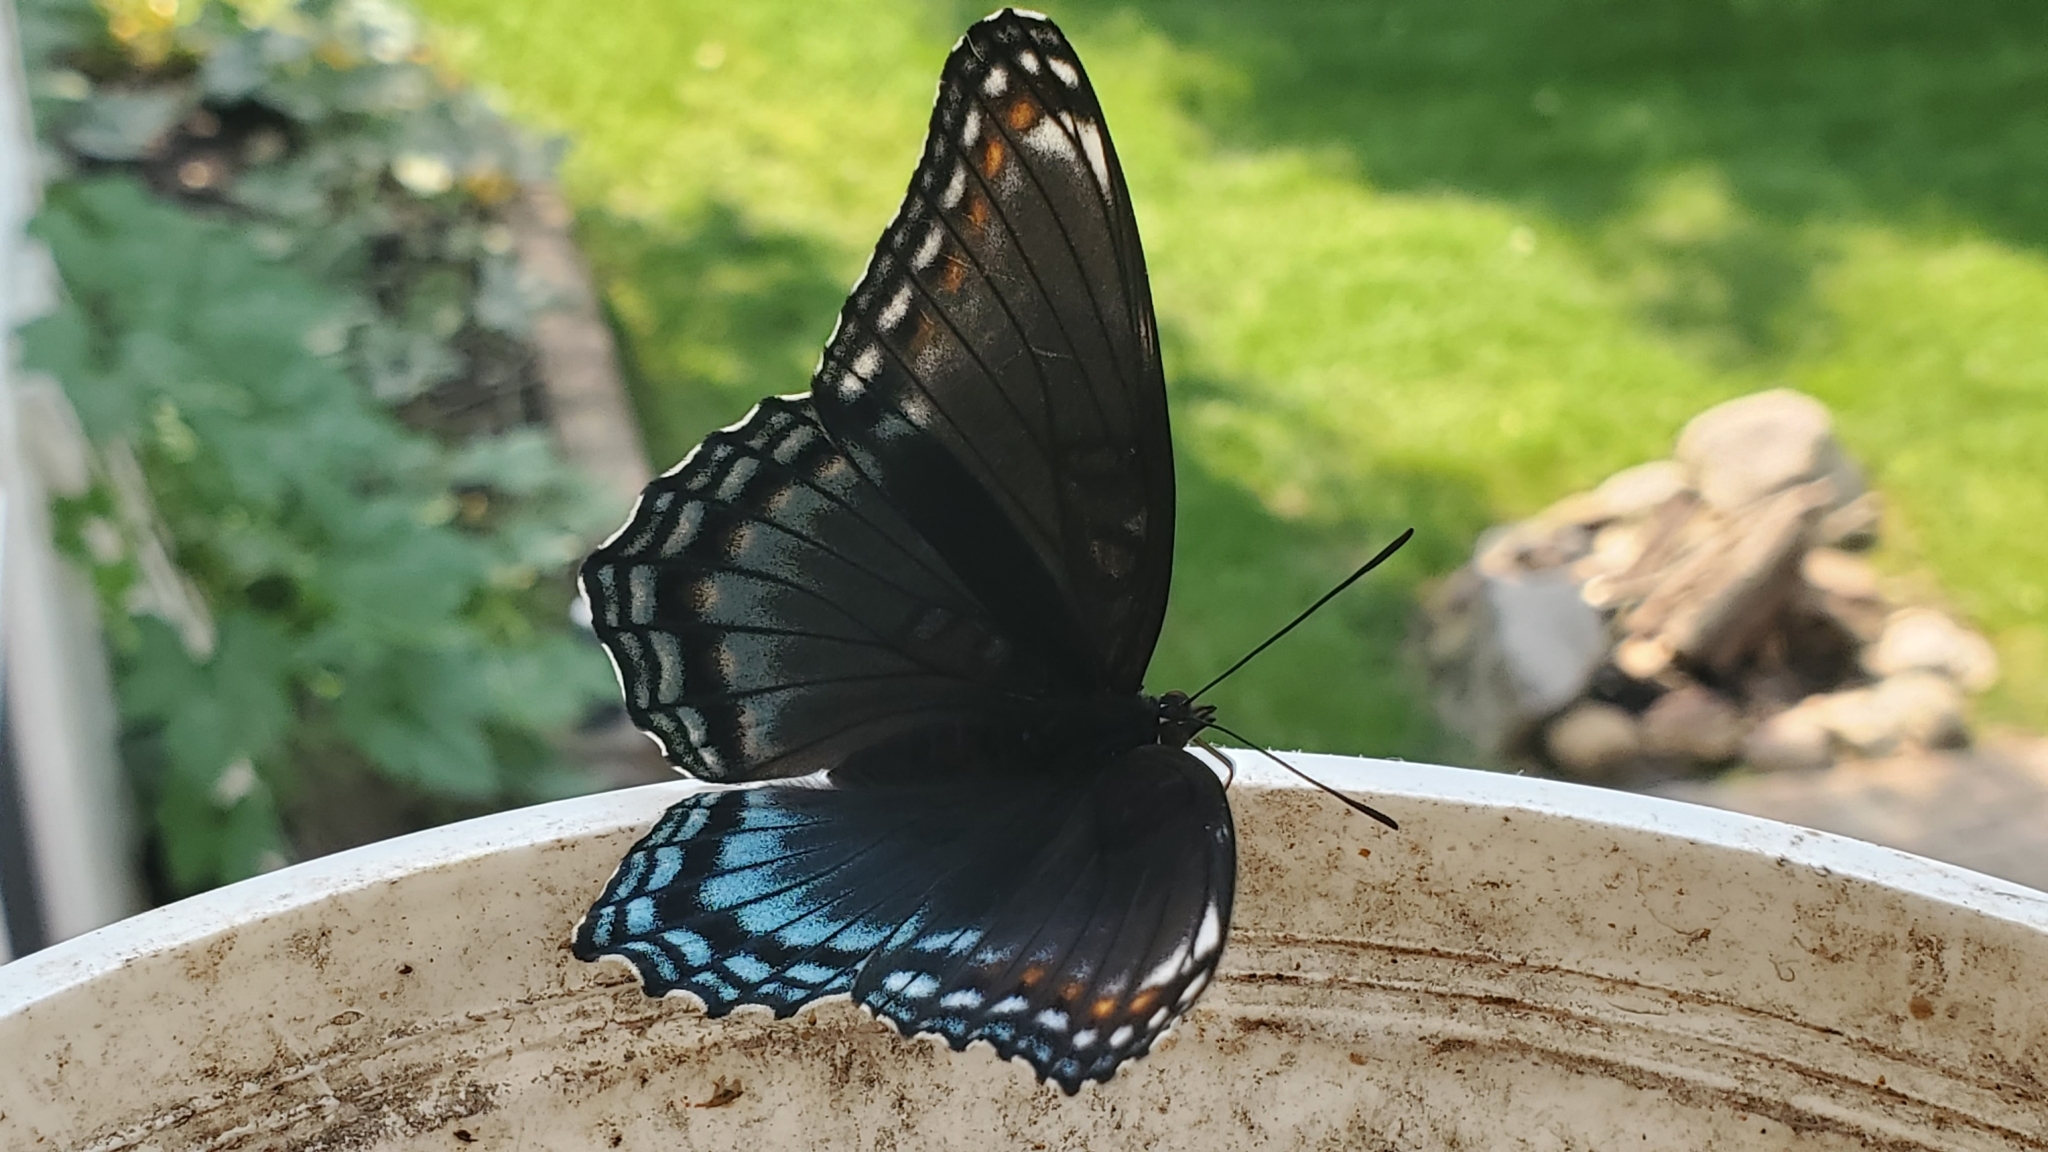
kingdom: Animalia
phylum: Arthropoda
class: Insecta
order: Lepidoptera
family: Nymphalidae
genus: Limenitis
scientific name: Limenitis astyanax
